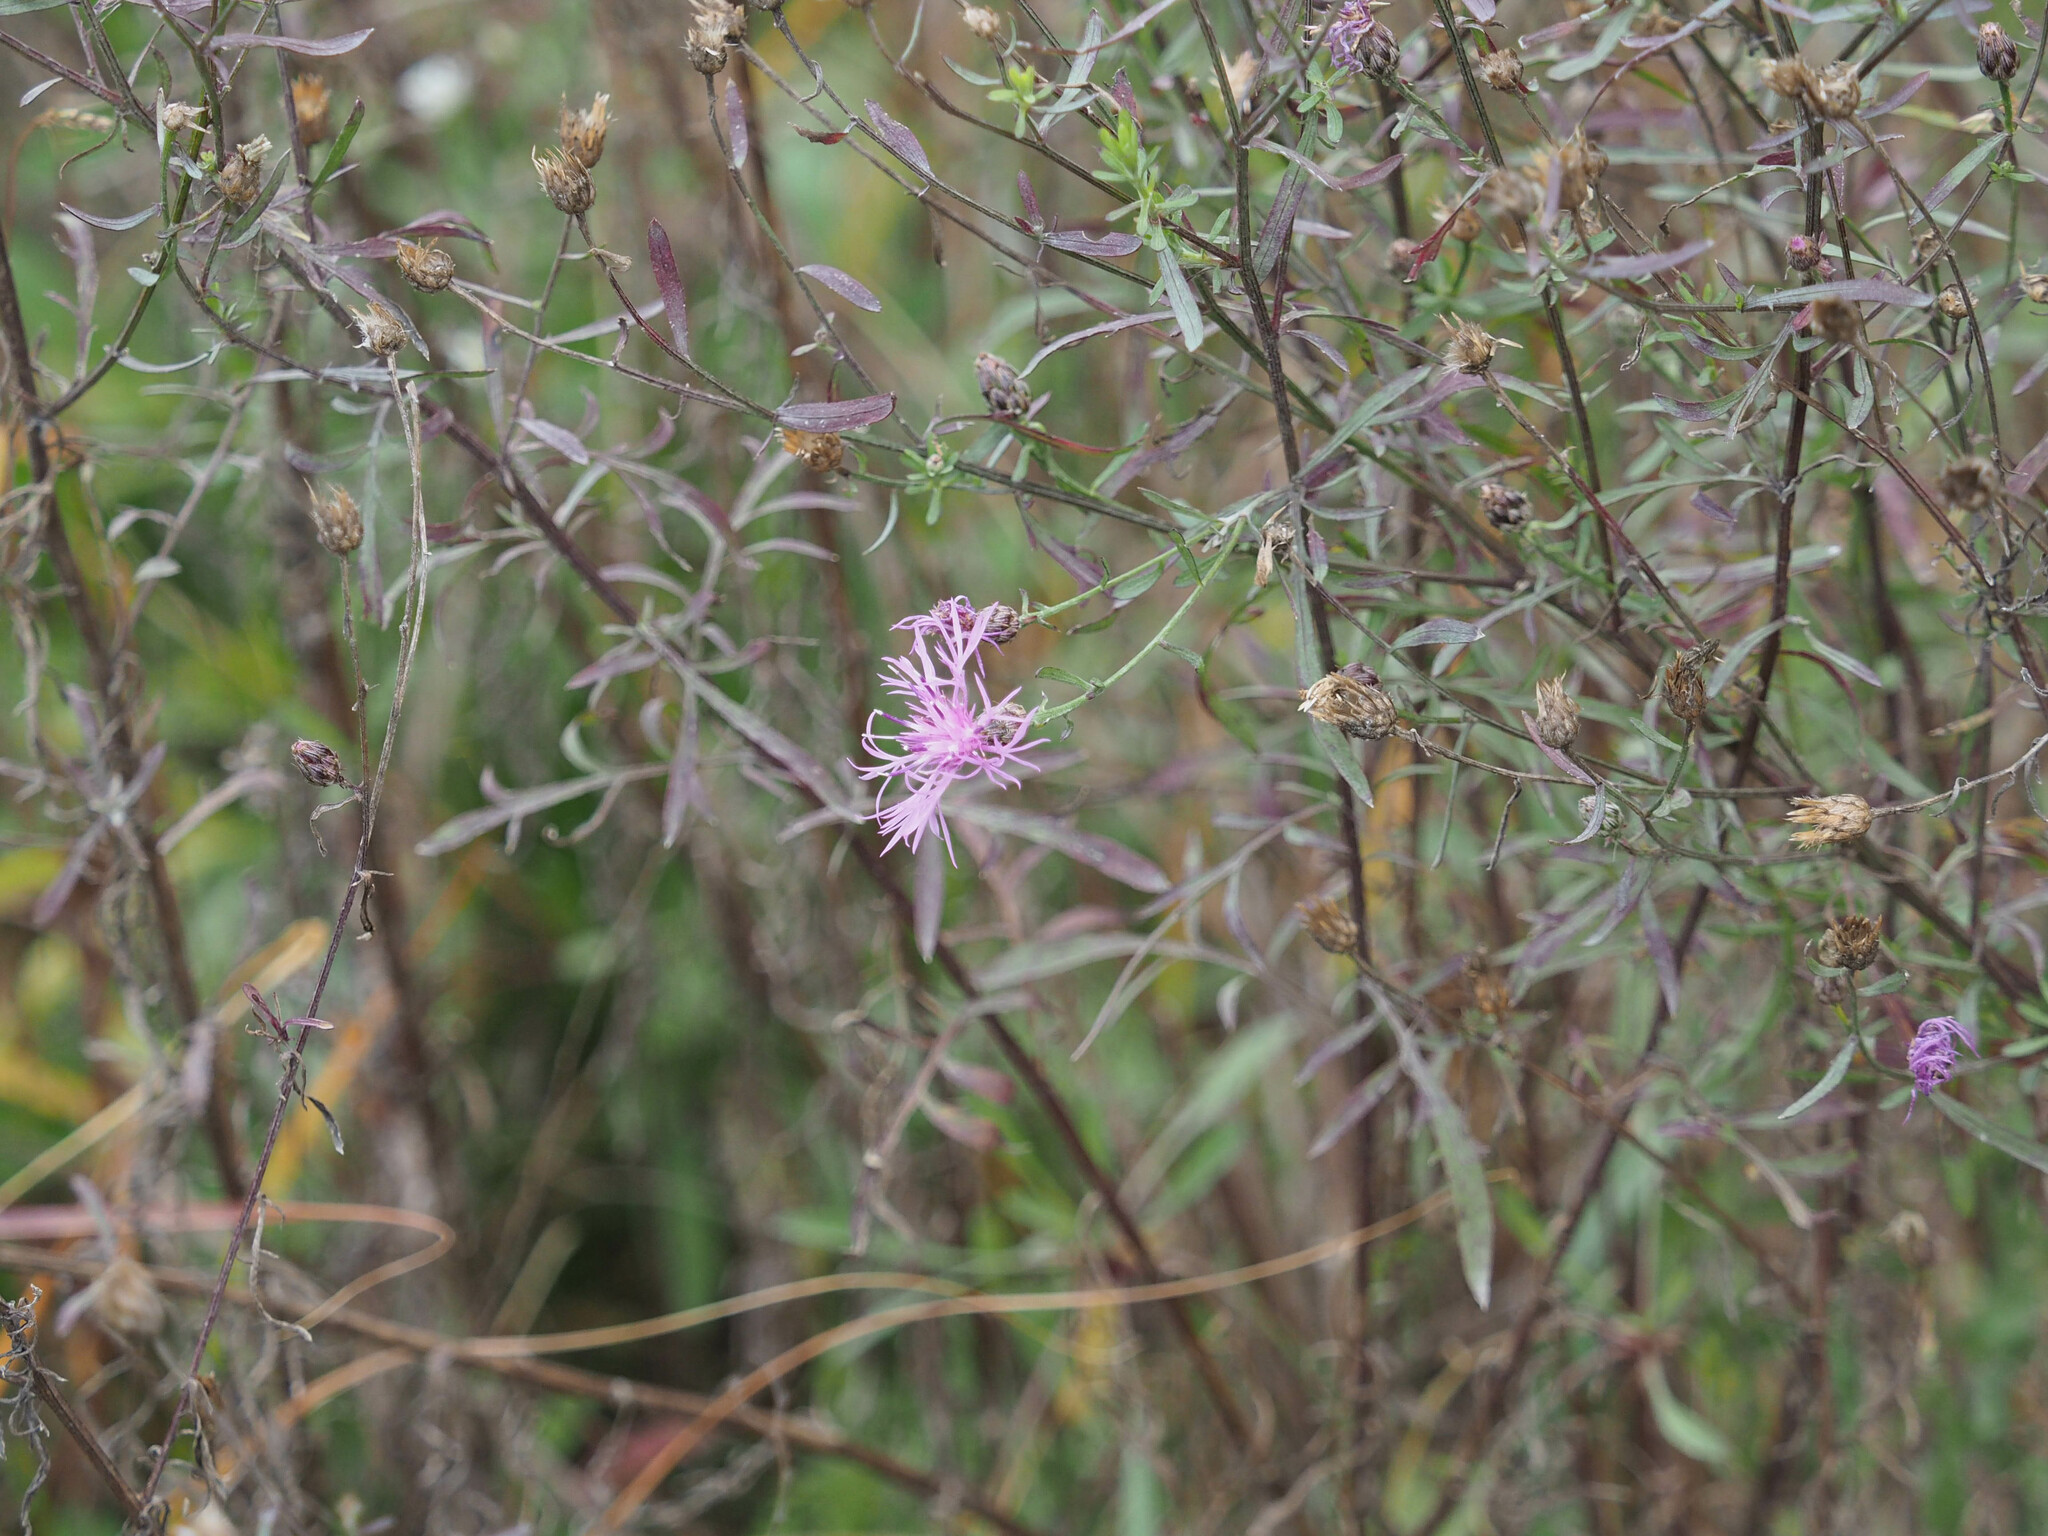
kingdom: Plantae
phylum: Tracheophyta
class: Magnoliopsida
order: Asterales
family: Asteraceae
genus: Centaurea
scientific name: Centaurea stoebe
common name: Spotted knapweed
